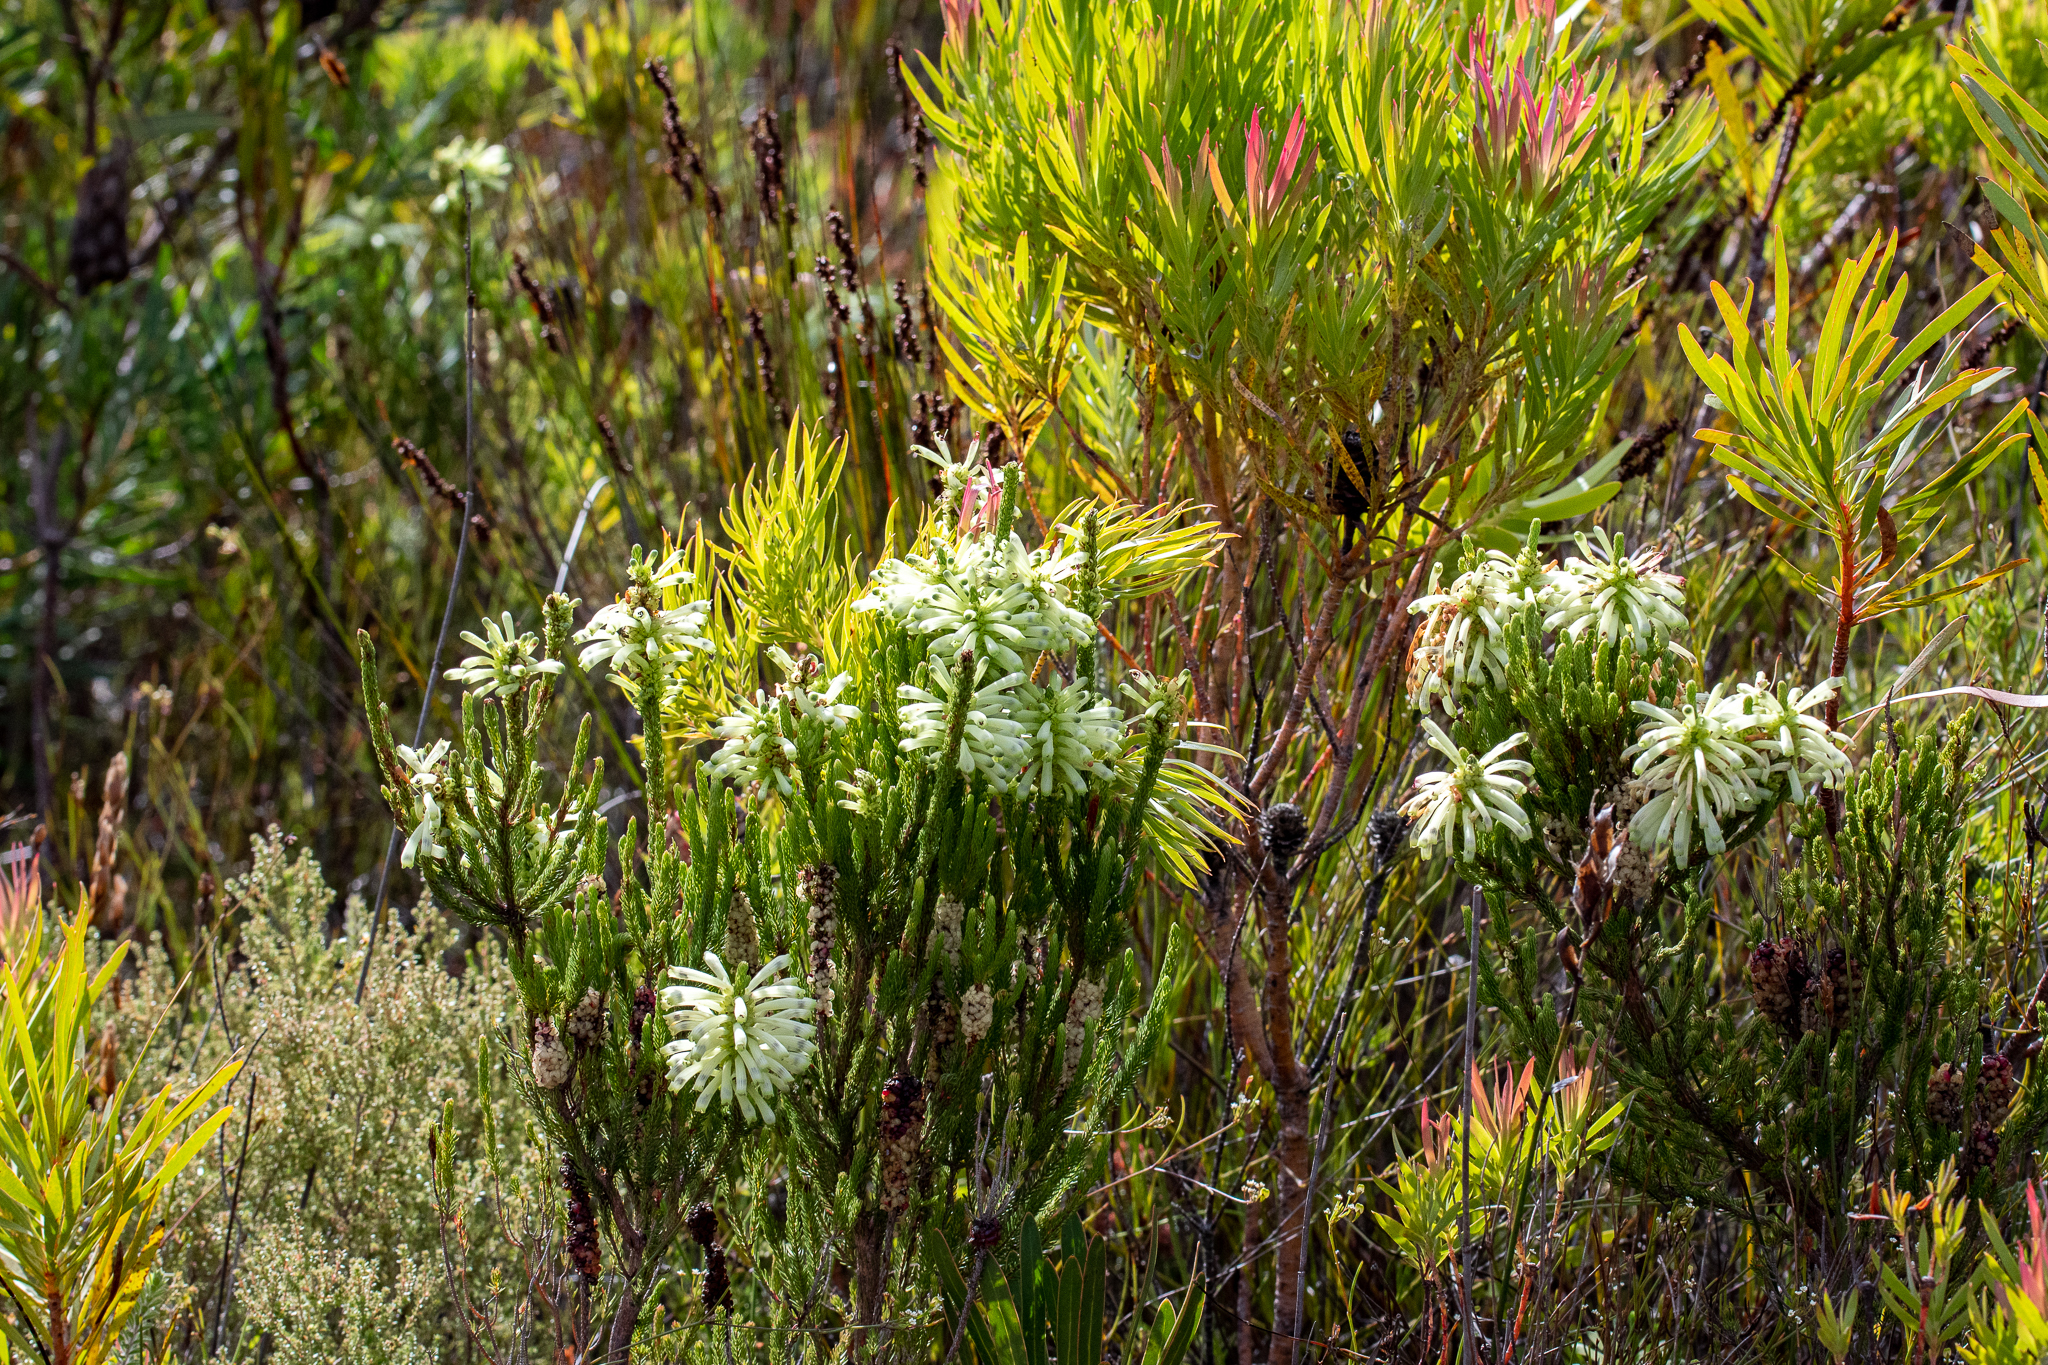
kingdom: Plantae
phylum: Tracheophyta
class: Magnoliopsida
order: Ericales
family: Ericaceae
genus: Erica
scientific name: Erica sessiliflora
